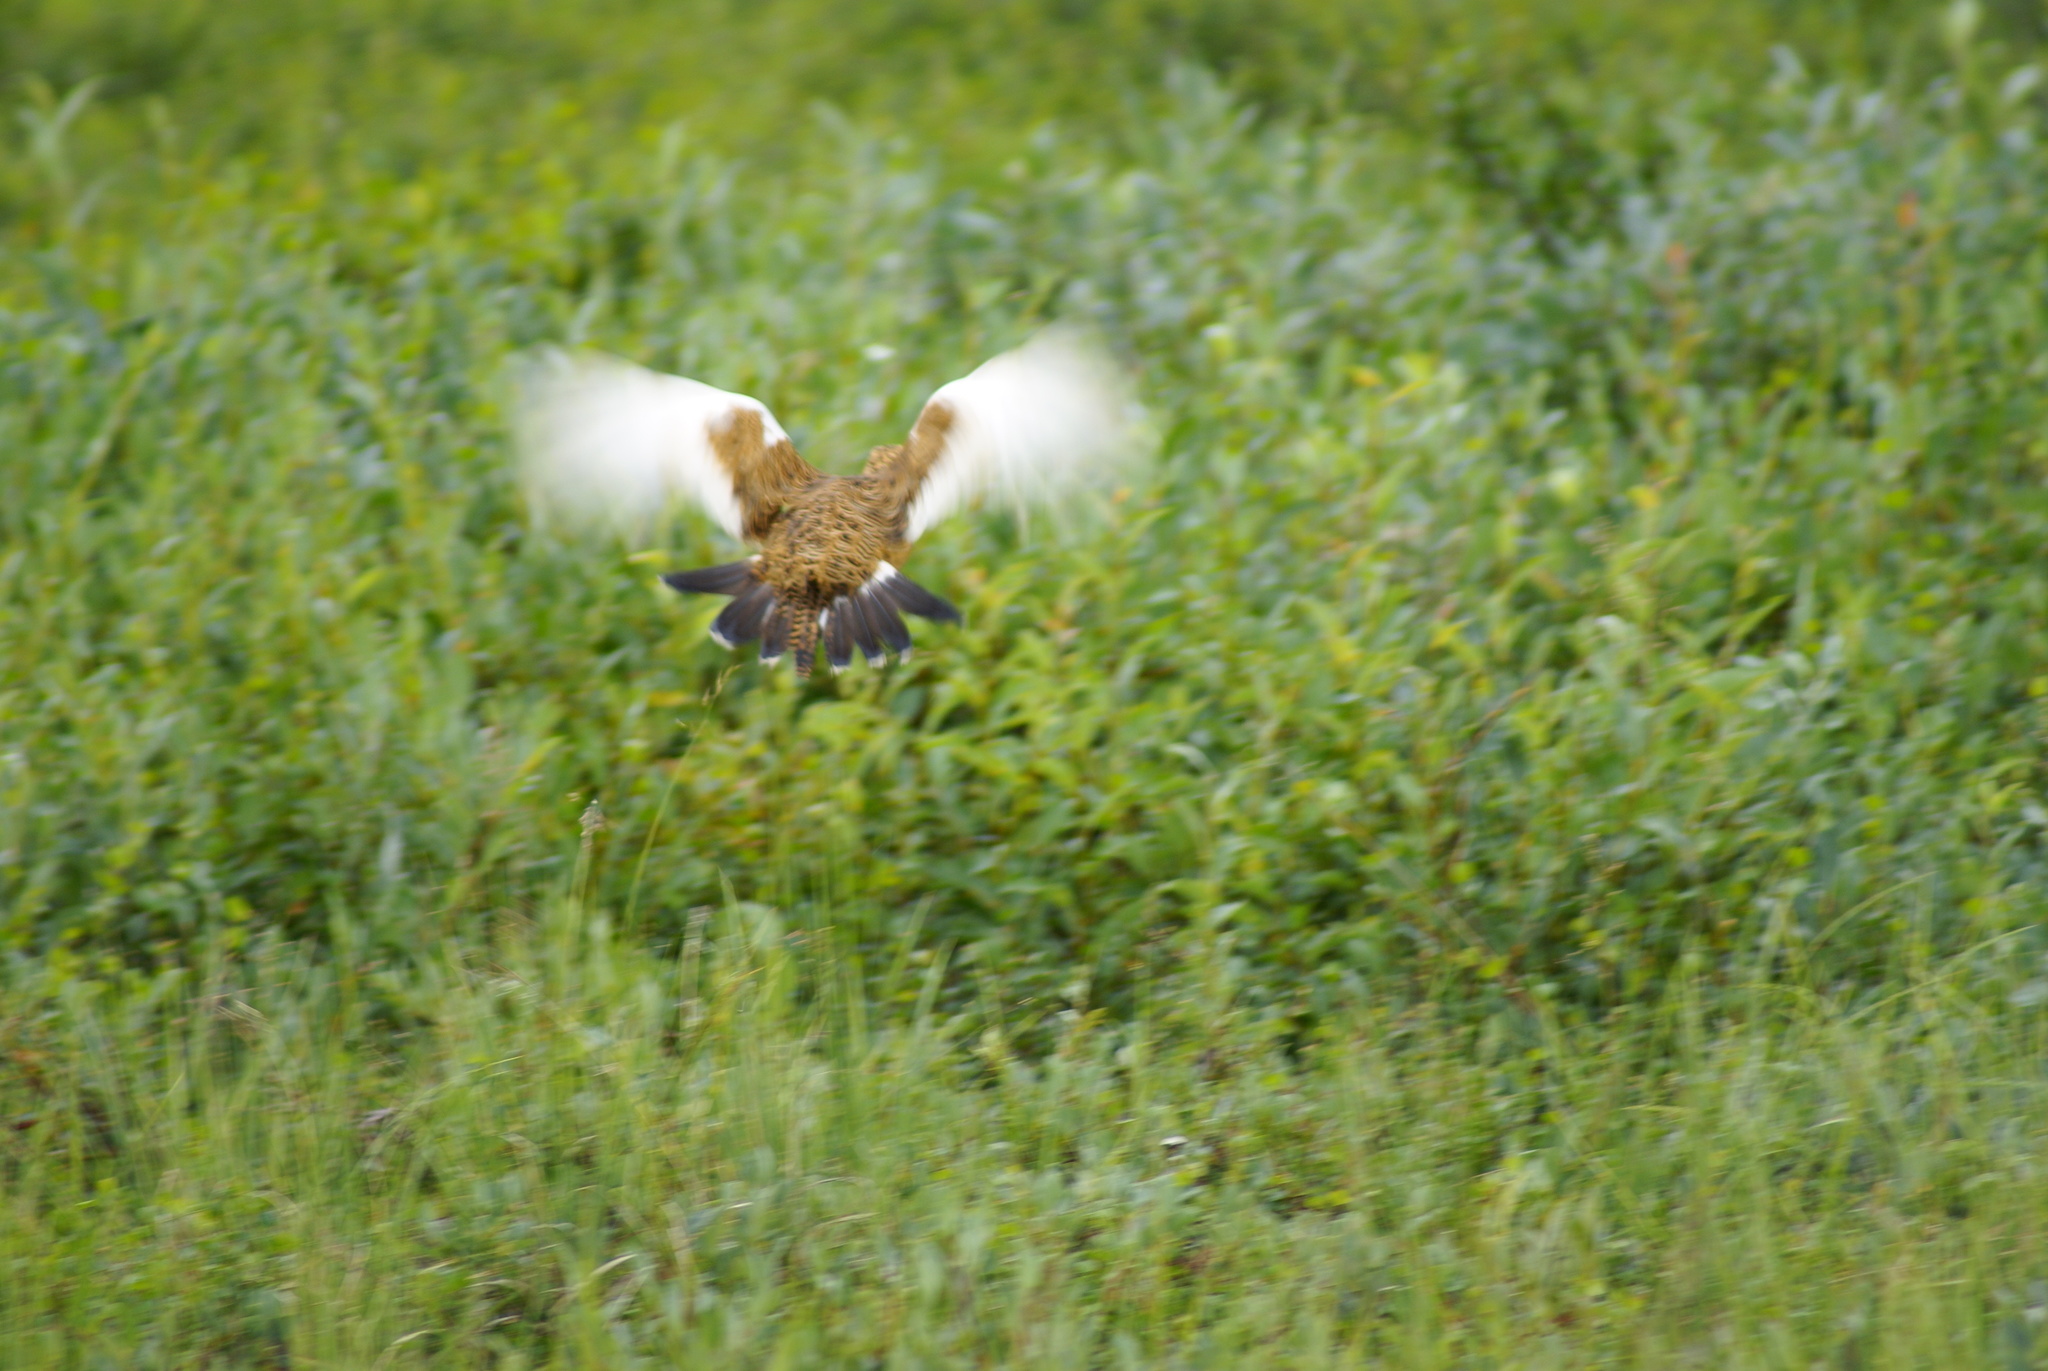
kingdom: Animalia
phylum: Chordata
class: Aves
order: Galliformes
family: Phasianidae
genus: Lagopus
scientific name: Lagopus lagopus
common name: Willow ptarmigan
